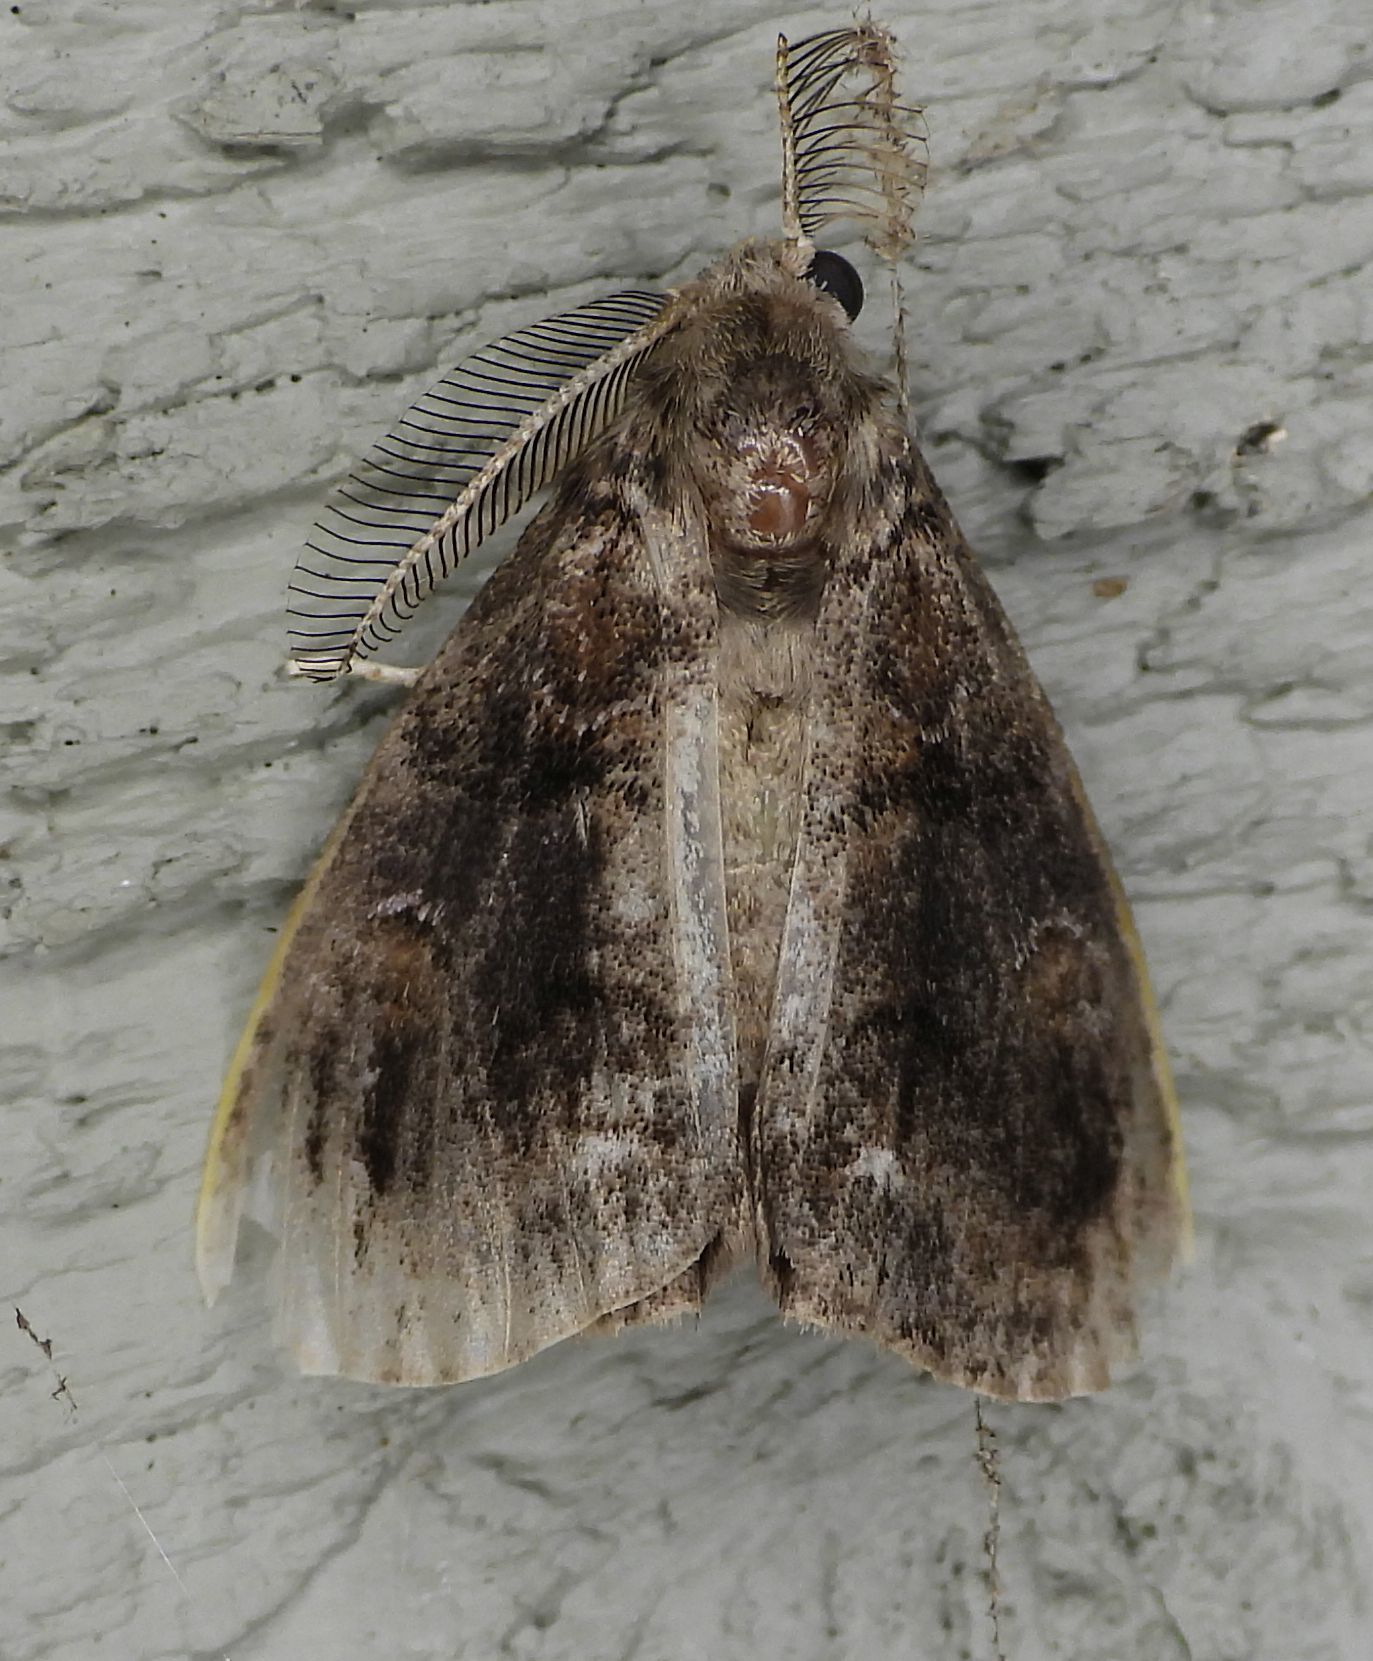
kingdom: Animalia
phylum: Arthropoda
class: Insecta
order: Lepidoptera
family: Erebidae
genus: Orgyia
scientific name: Orgyia definita
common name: Definite tussock moth
